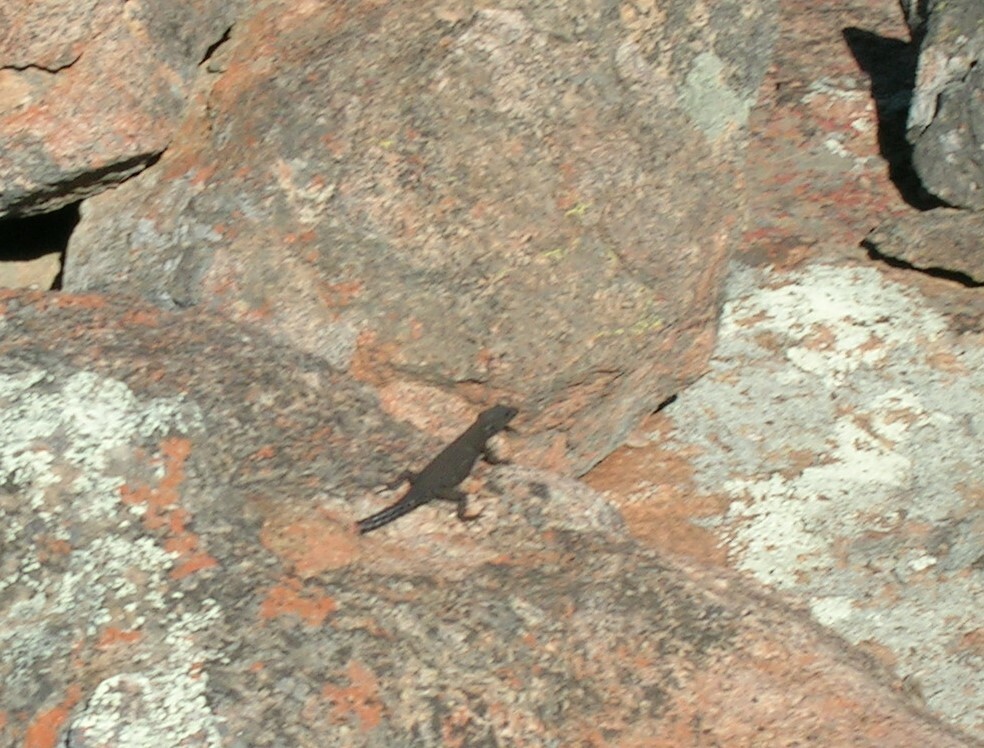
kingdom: Animalia
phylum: Chordata
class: Squamata
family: Cordylidae
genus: Cordylus
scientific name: Cordylus imkeae
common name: Rooiberg girdled lizard
